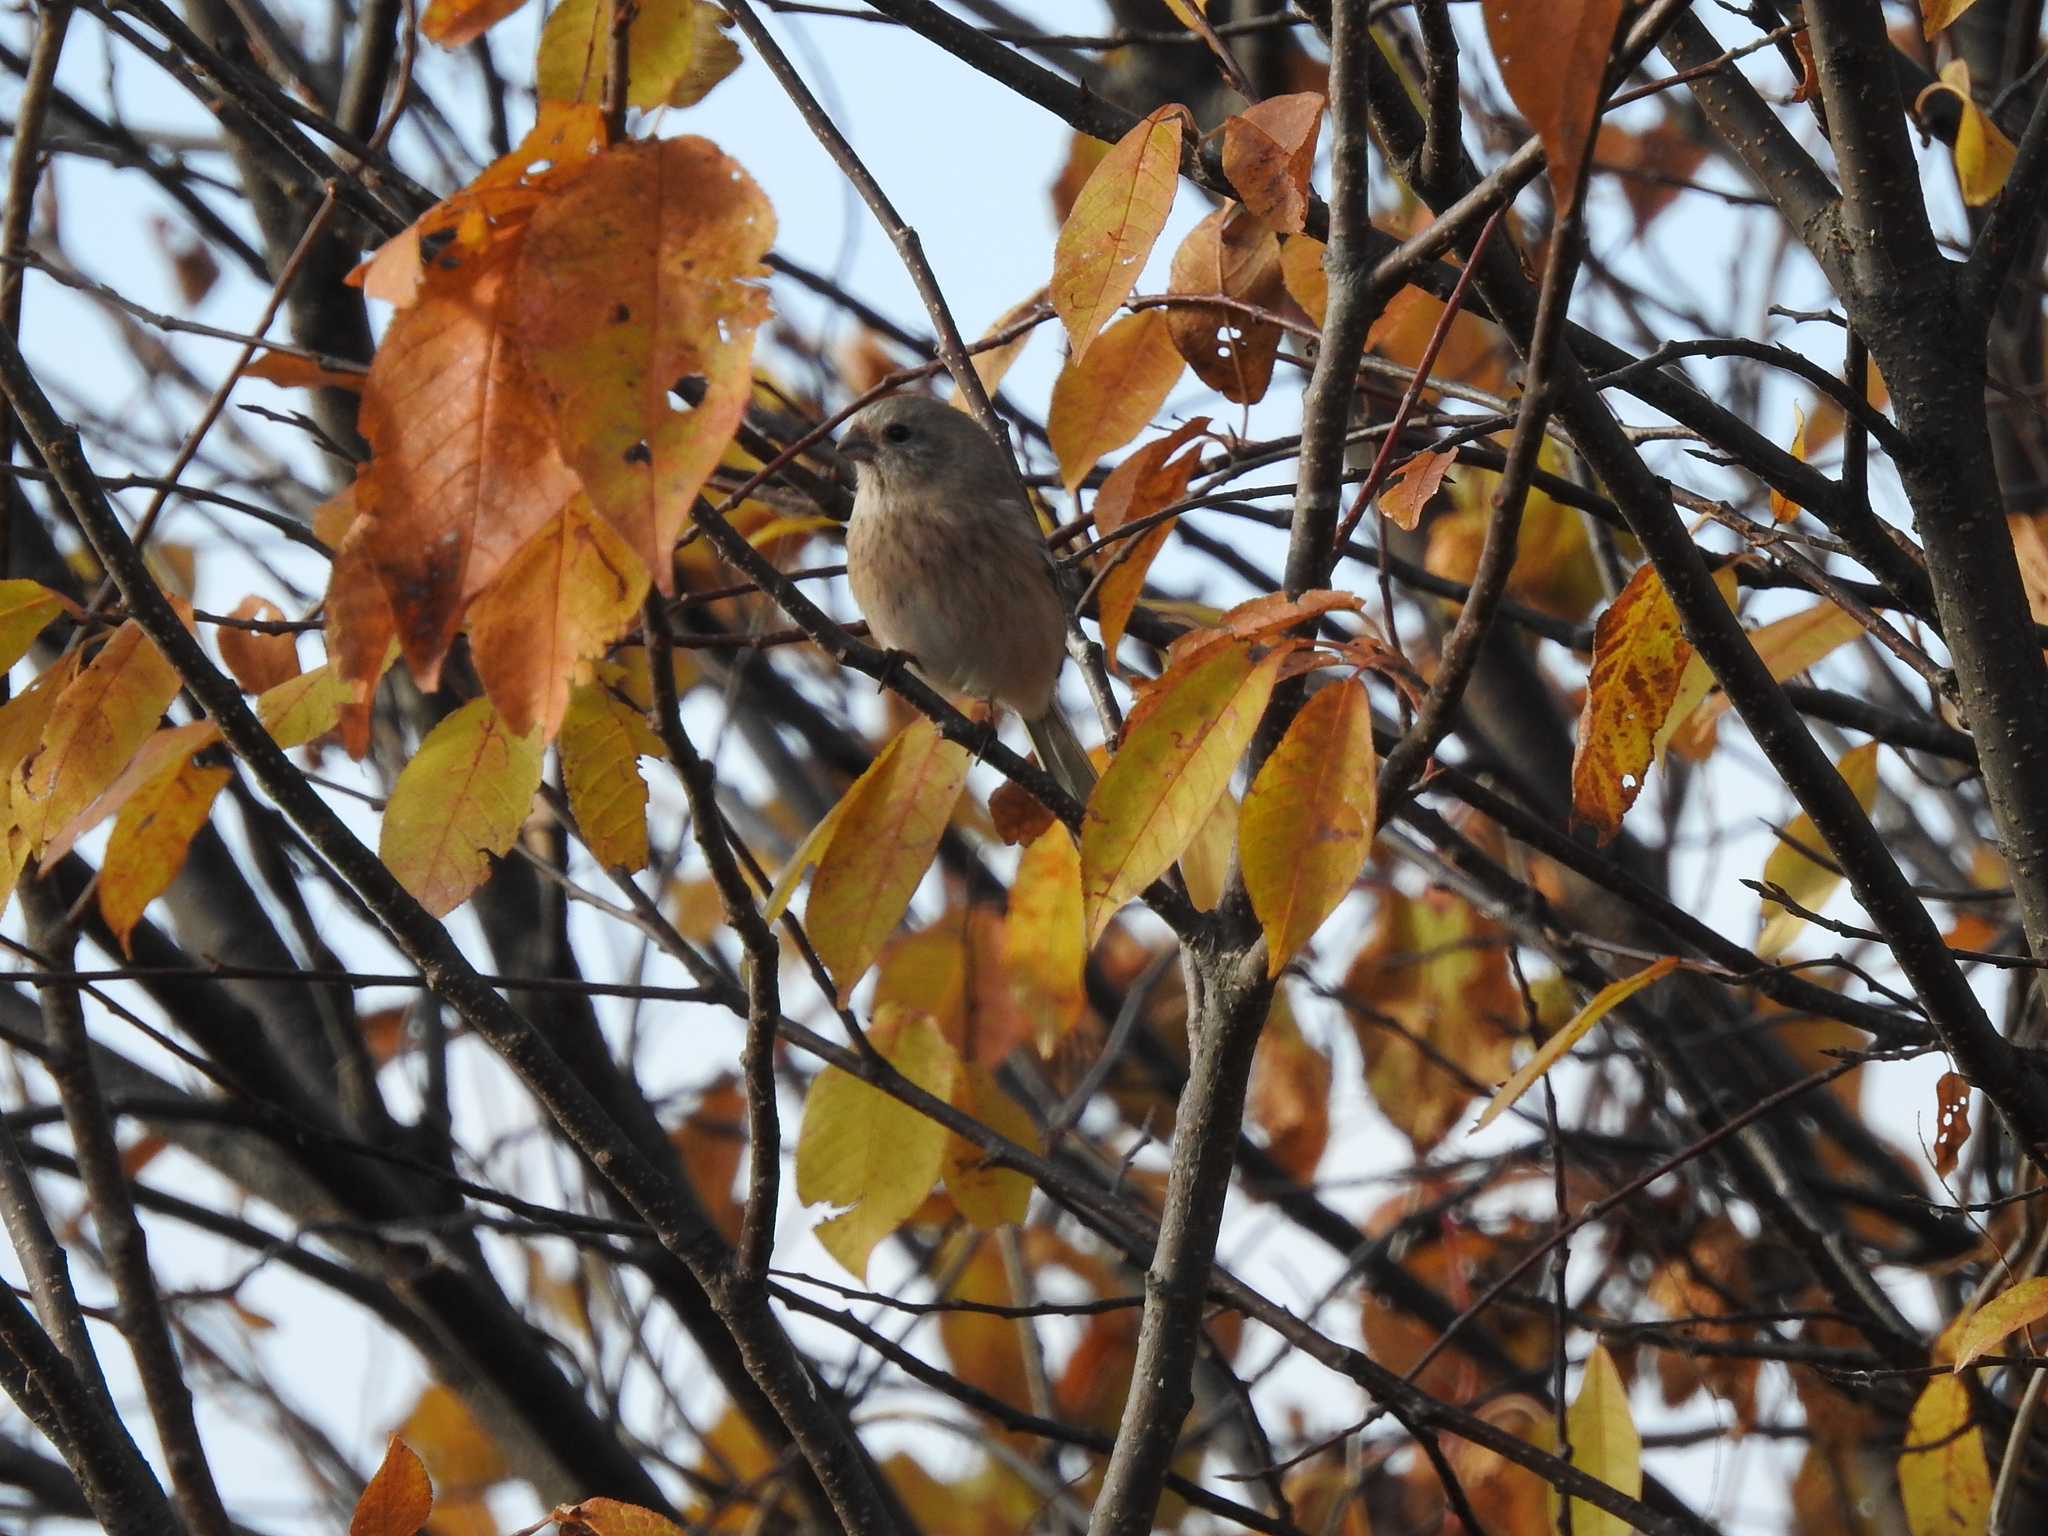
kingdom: Animalia
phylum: Chordata
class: Aves
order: Passeriformes
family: Fringillidae
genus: Carpodacus
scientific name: Carpodacus sibiricus
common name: Long-tailed rosefinch
